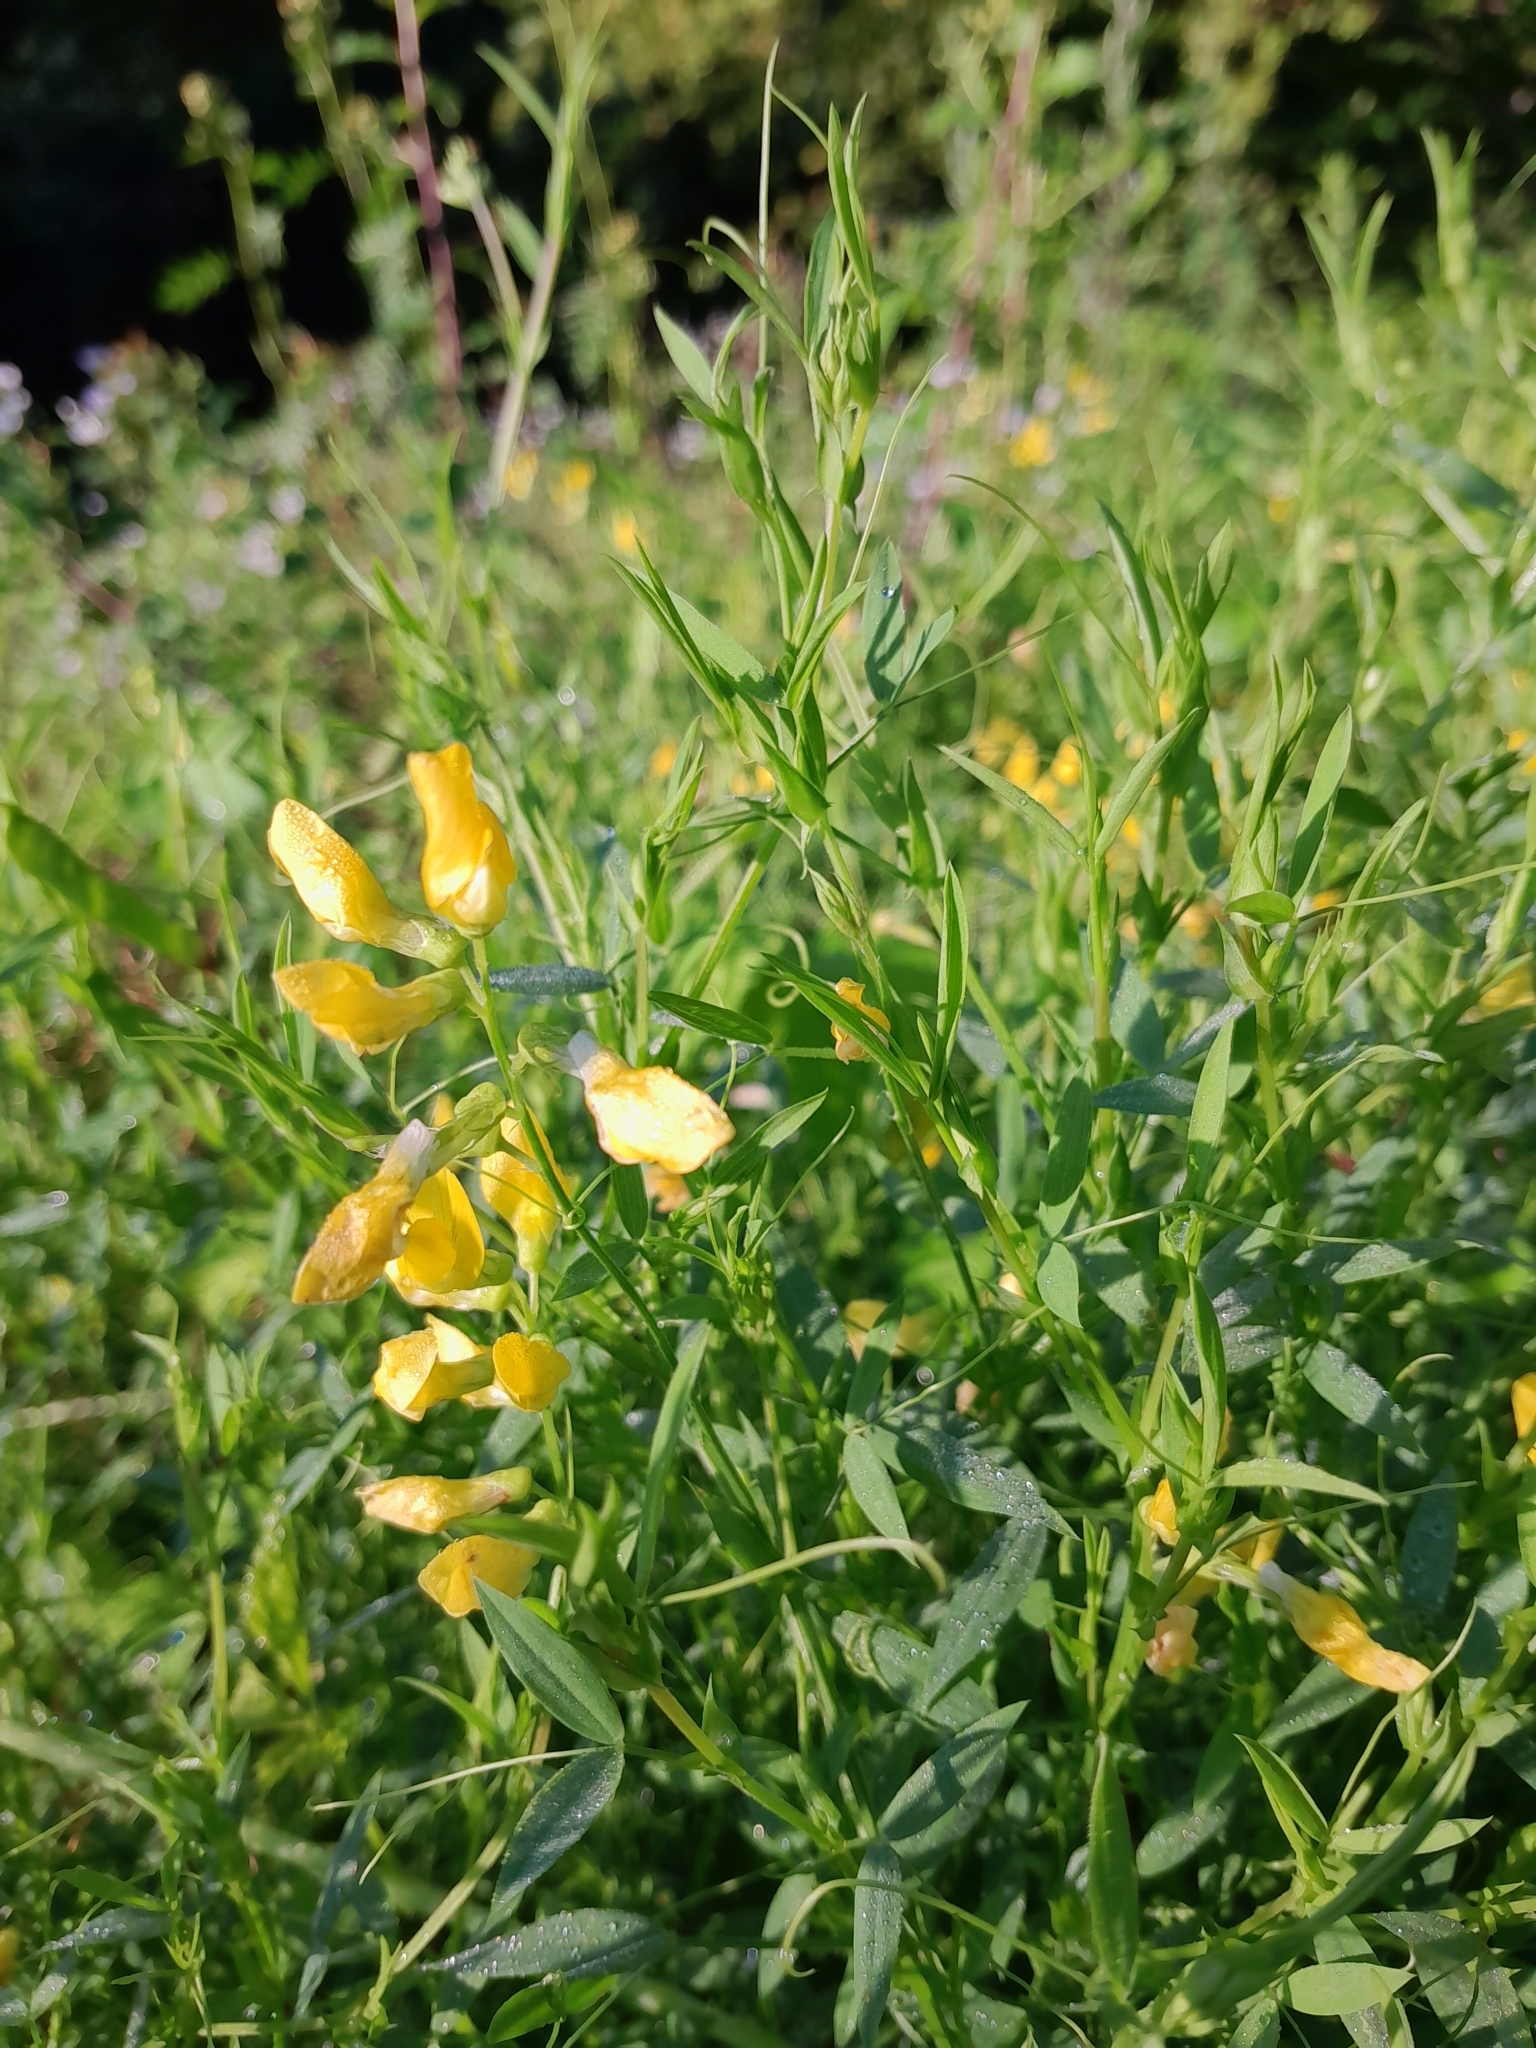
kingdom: Plantae
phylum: Tracheophyta
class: Magnoliopsida
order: Fabales
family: Fabaceae
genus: Lathyrus
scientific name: Lathyrus pratensis
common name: Meadow vetchling
